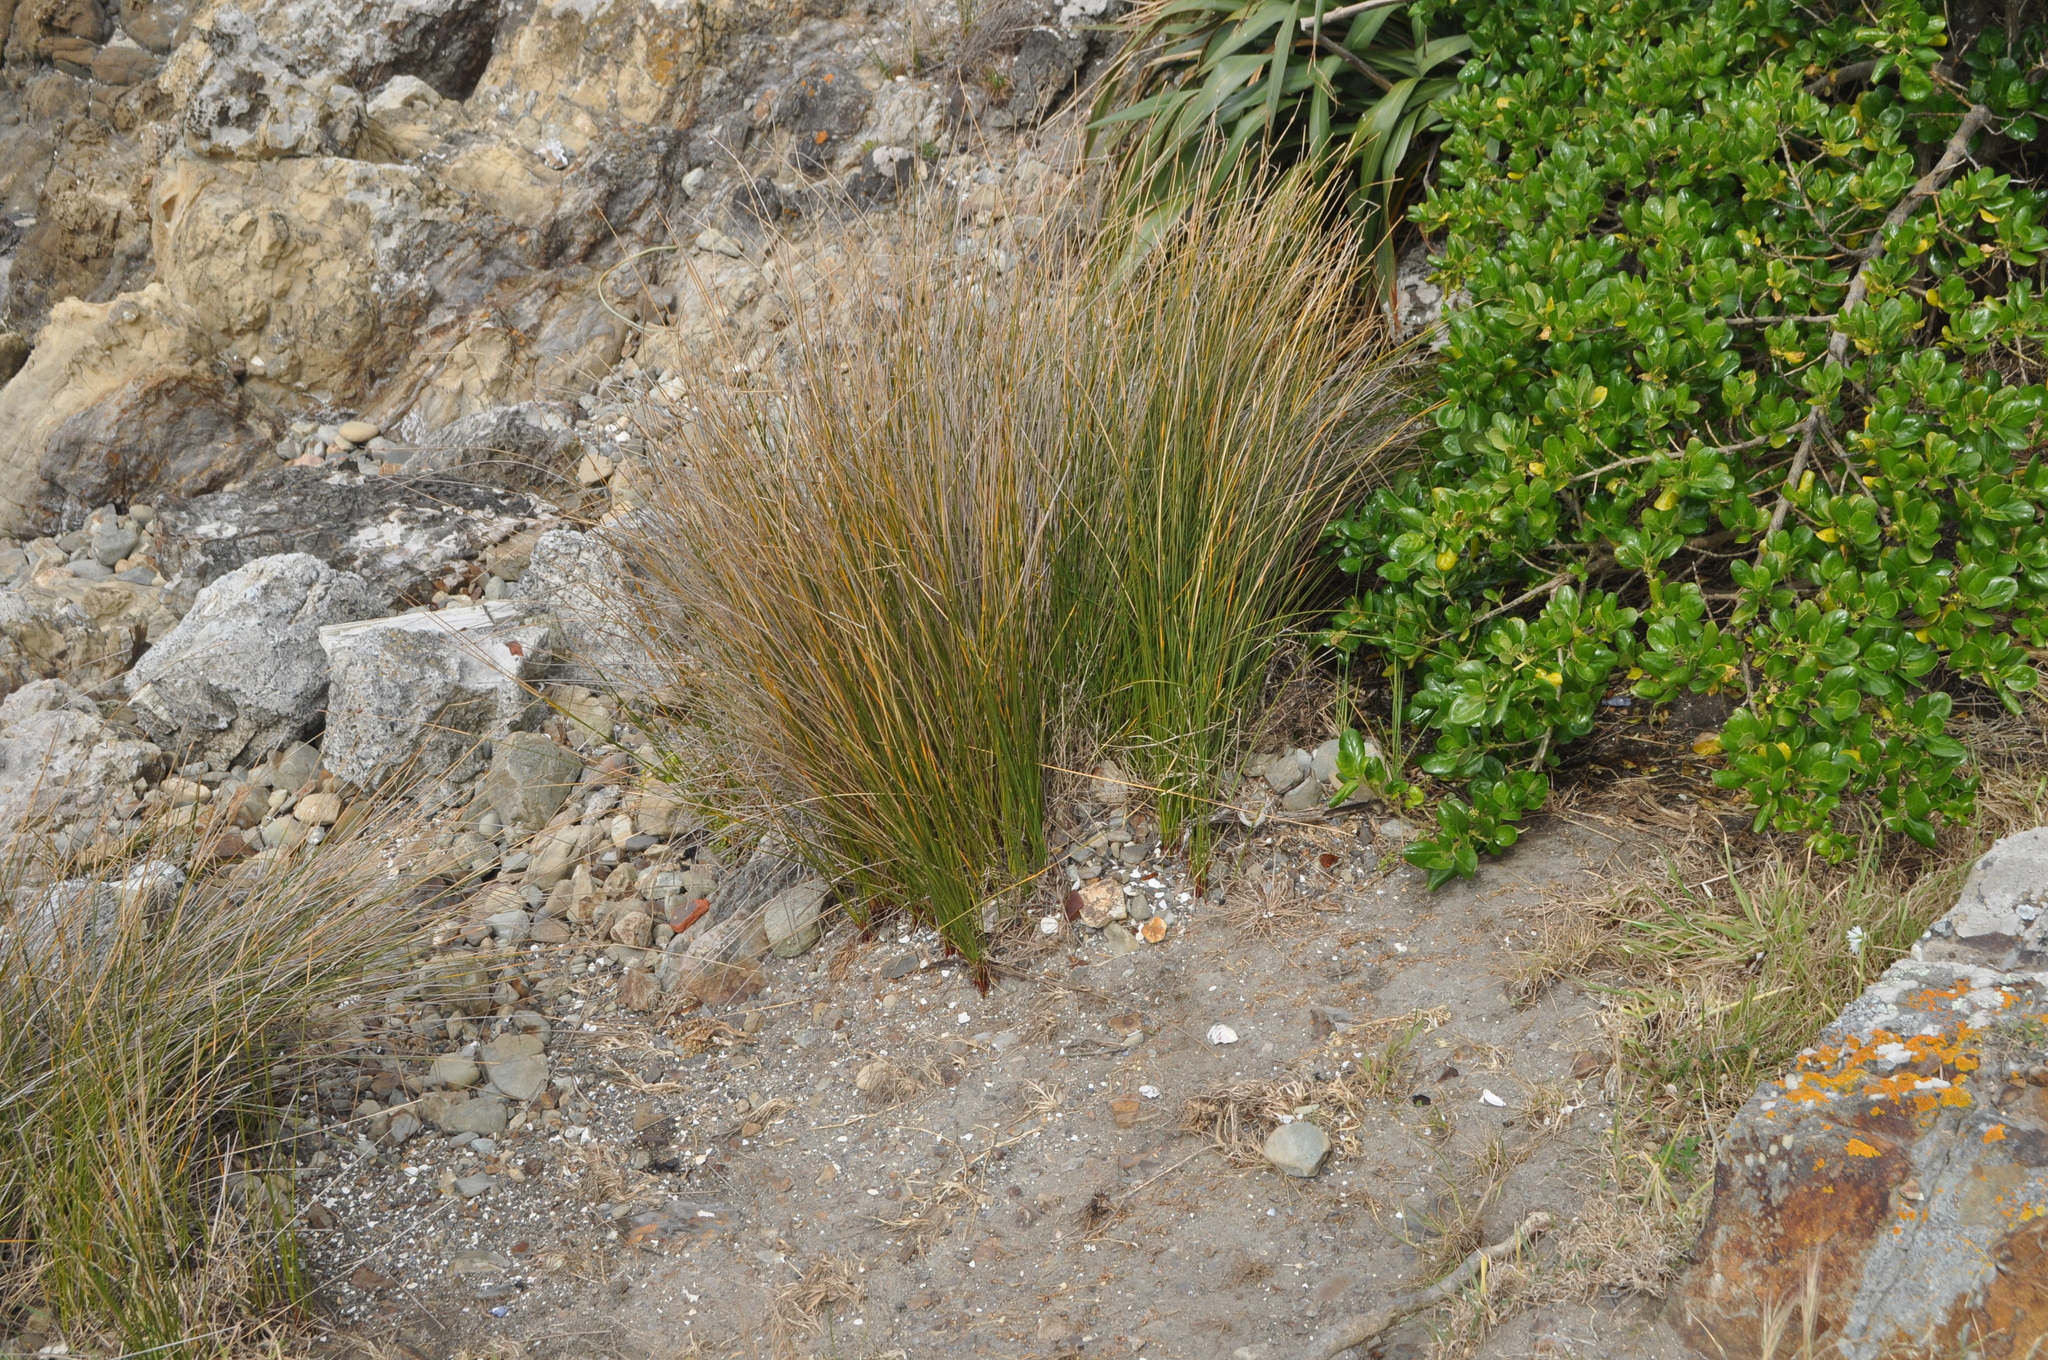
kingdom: Plantae
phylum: Tracheophyta
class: Liliopsida
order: Poales
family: Restionaceae
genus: Apodasmia
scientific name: Apodasmia similis
